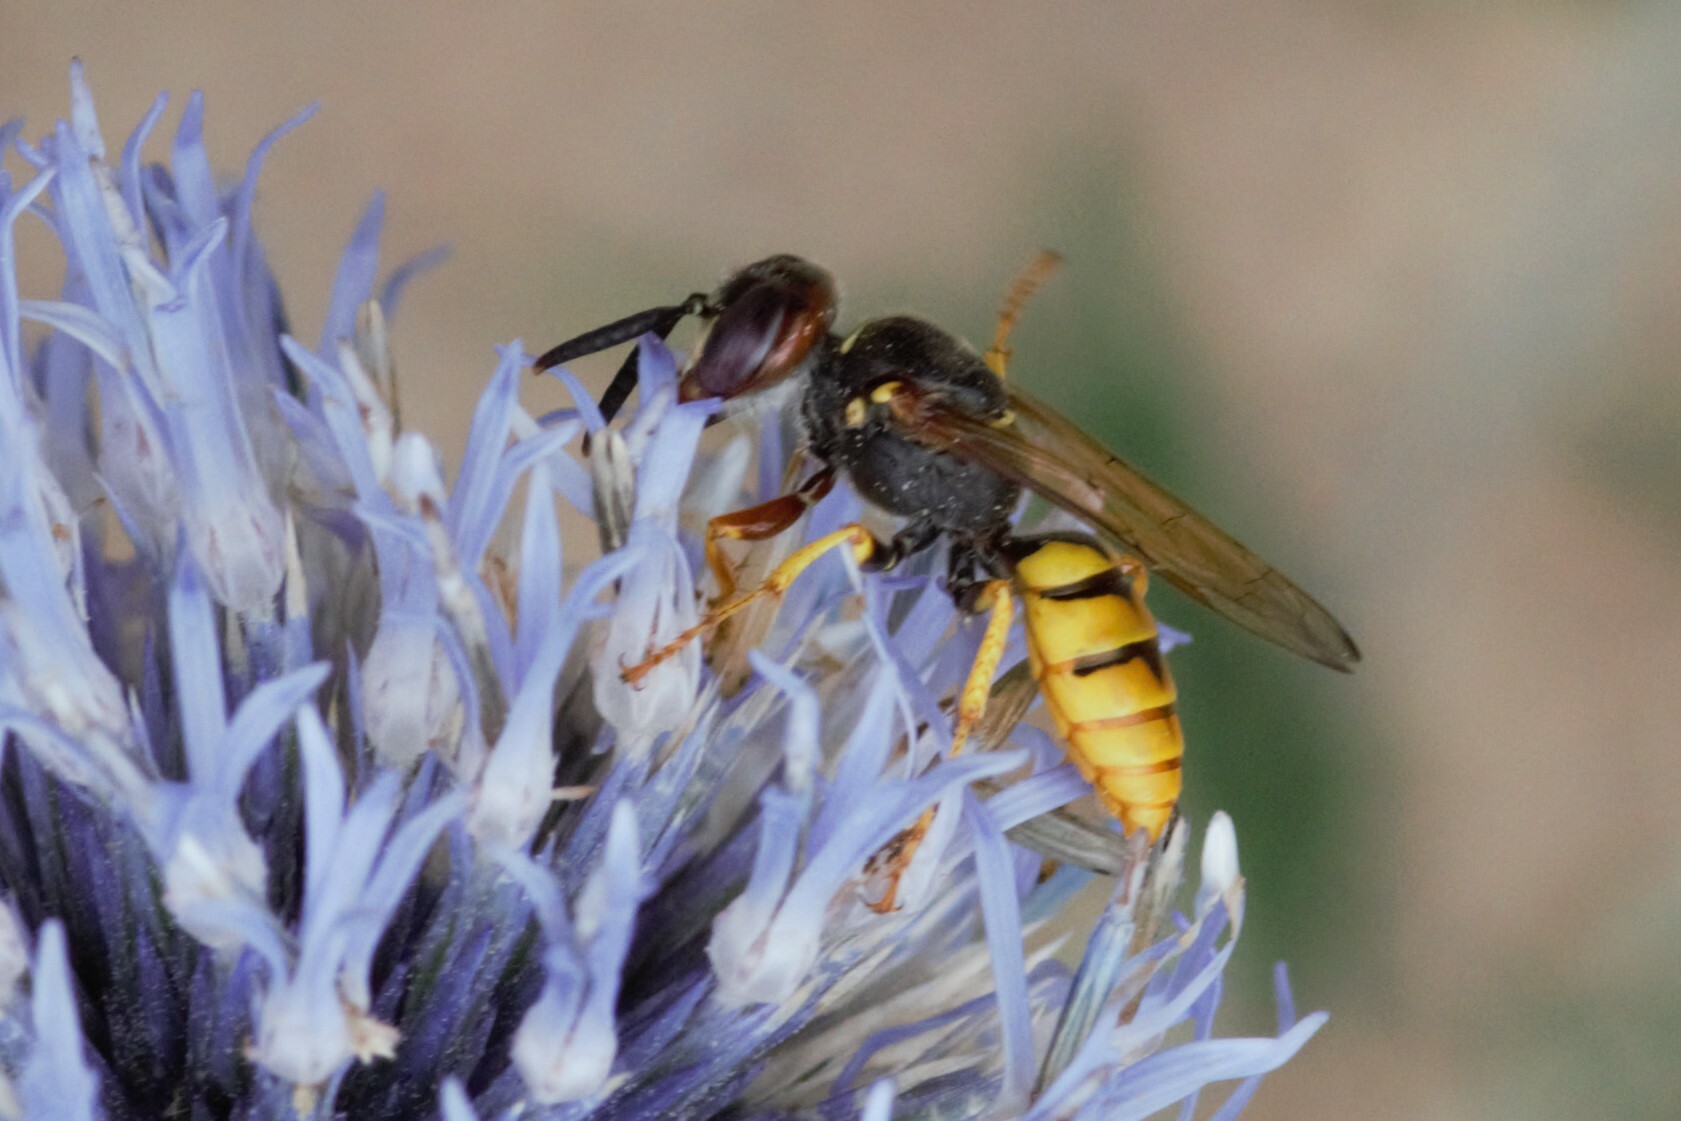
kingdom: Animalia
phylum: Arthropoda
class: Insecta
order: Hymenoptera
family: Crabronidae
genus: Philanthus
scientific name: Philanthus triangulum
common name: Bee wolf
